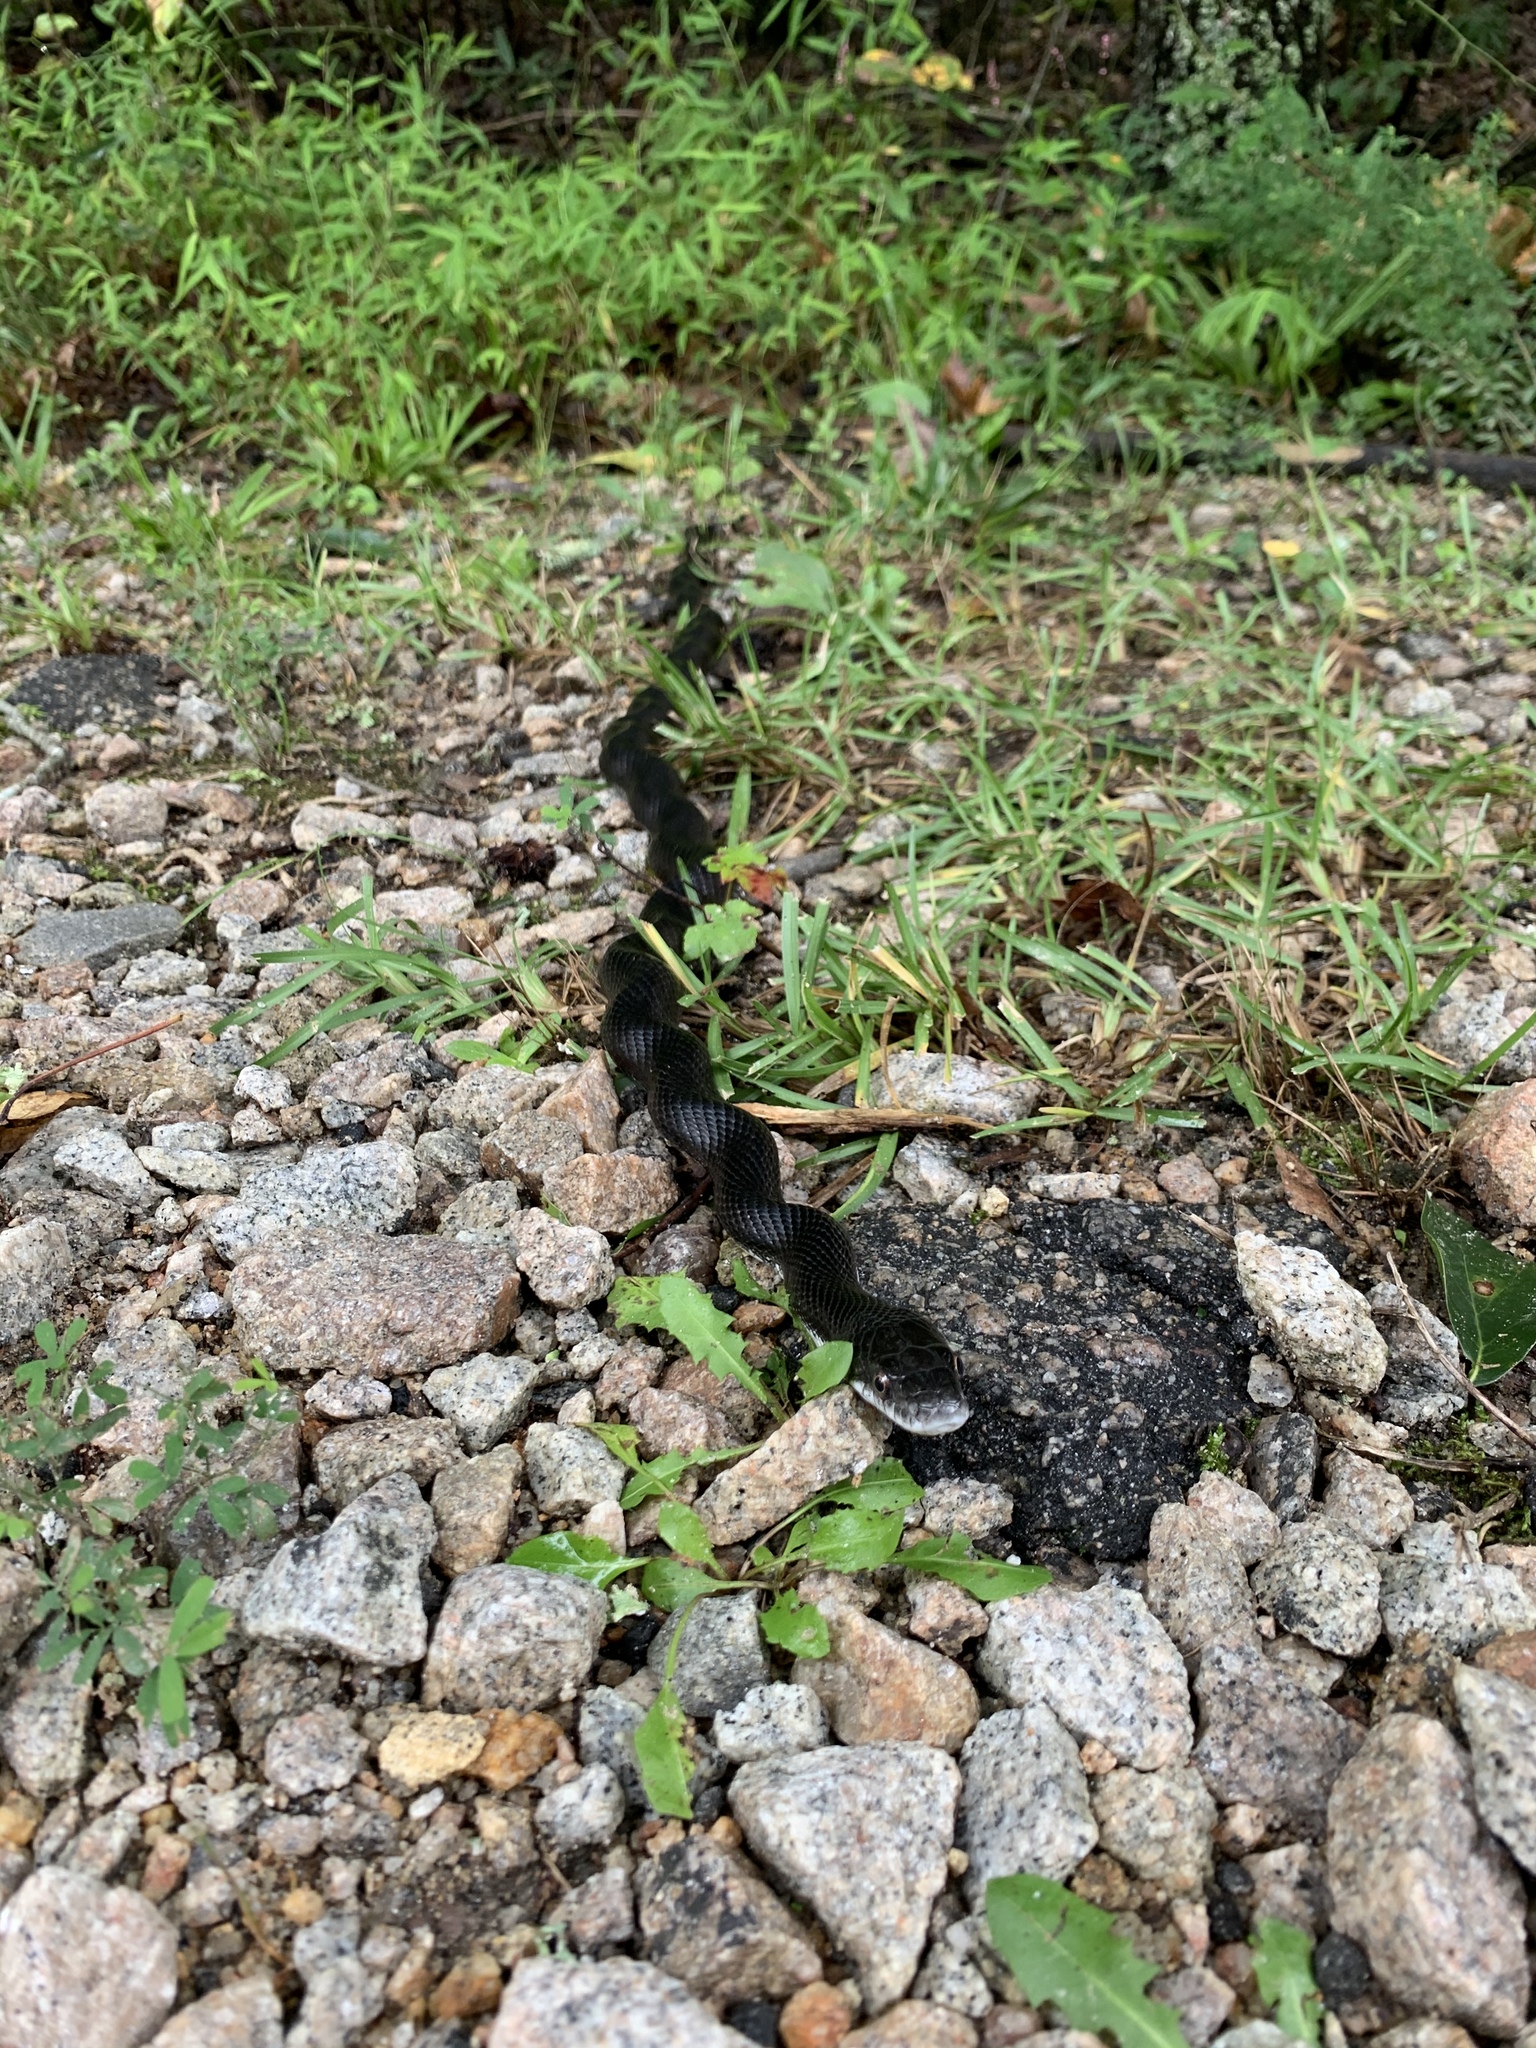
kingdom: Animalia
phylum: Chordata
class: Squamata
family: Colubridae
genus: Pantherophis
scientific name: Pantherophis alleghaniensis
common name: Eastern rat snake
